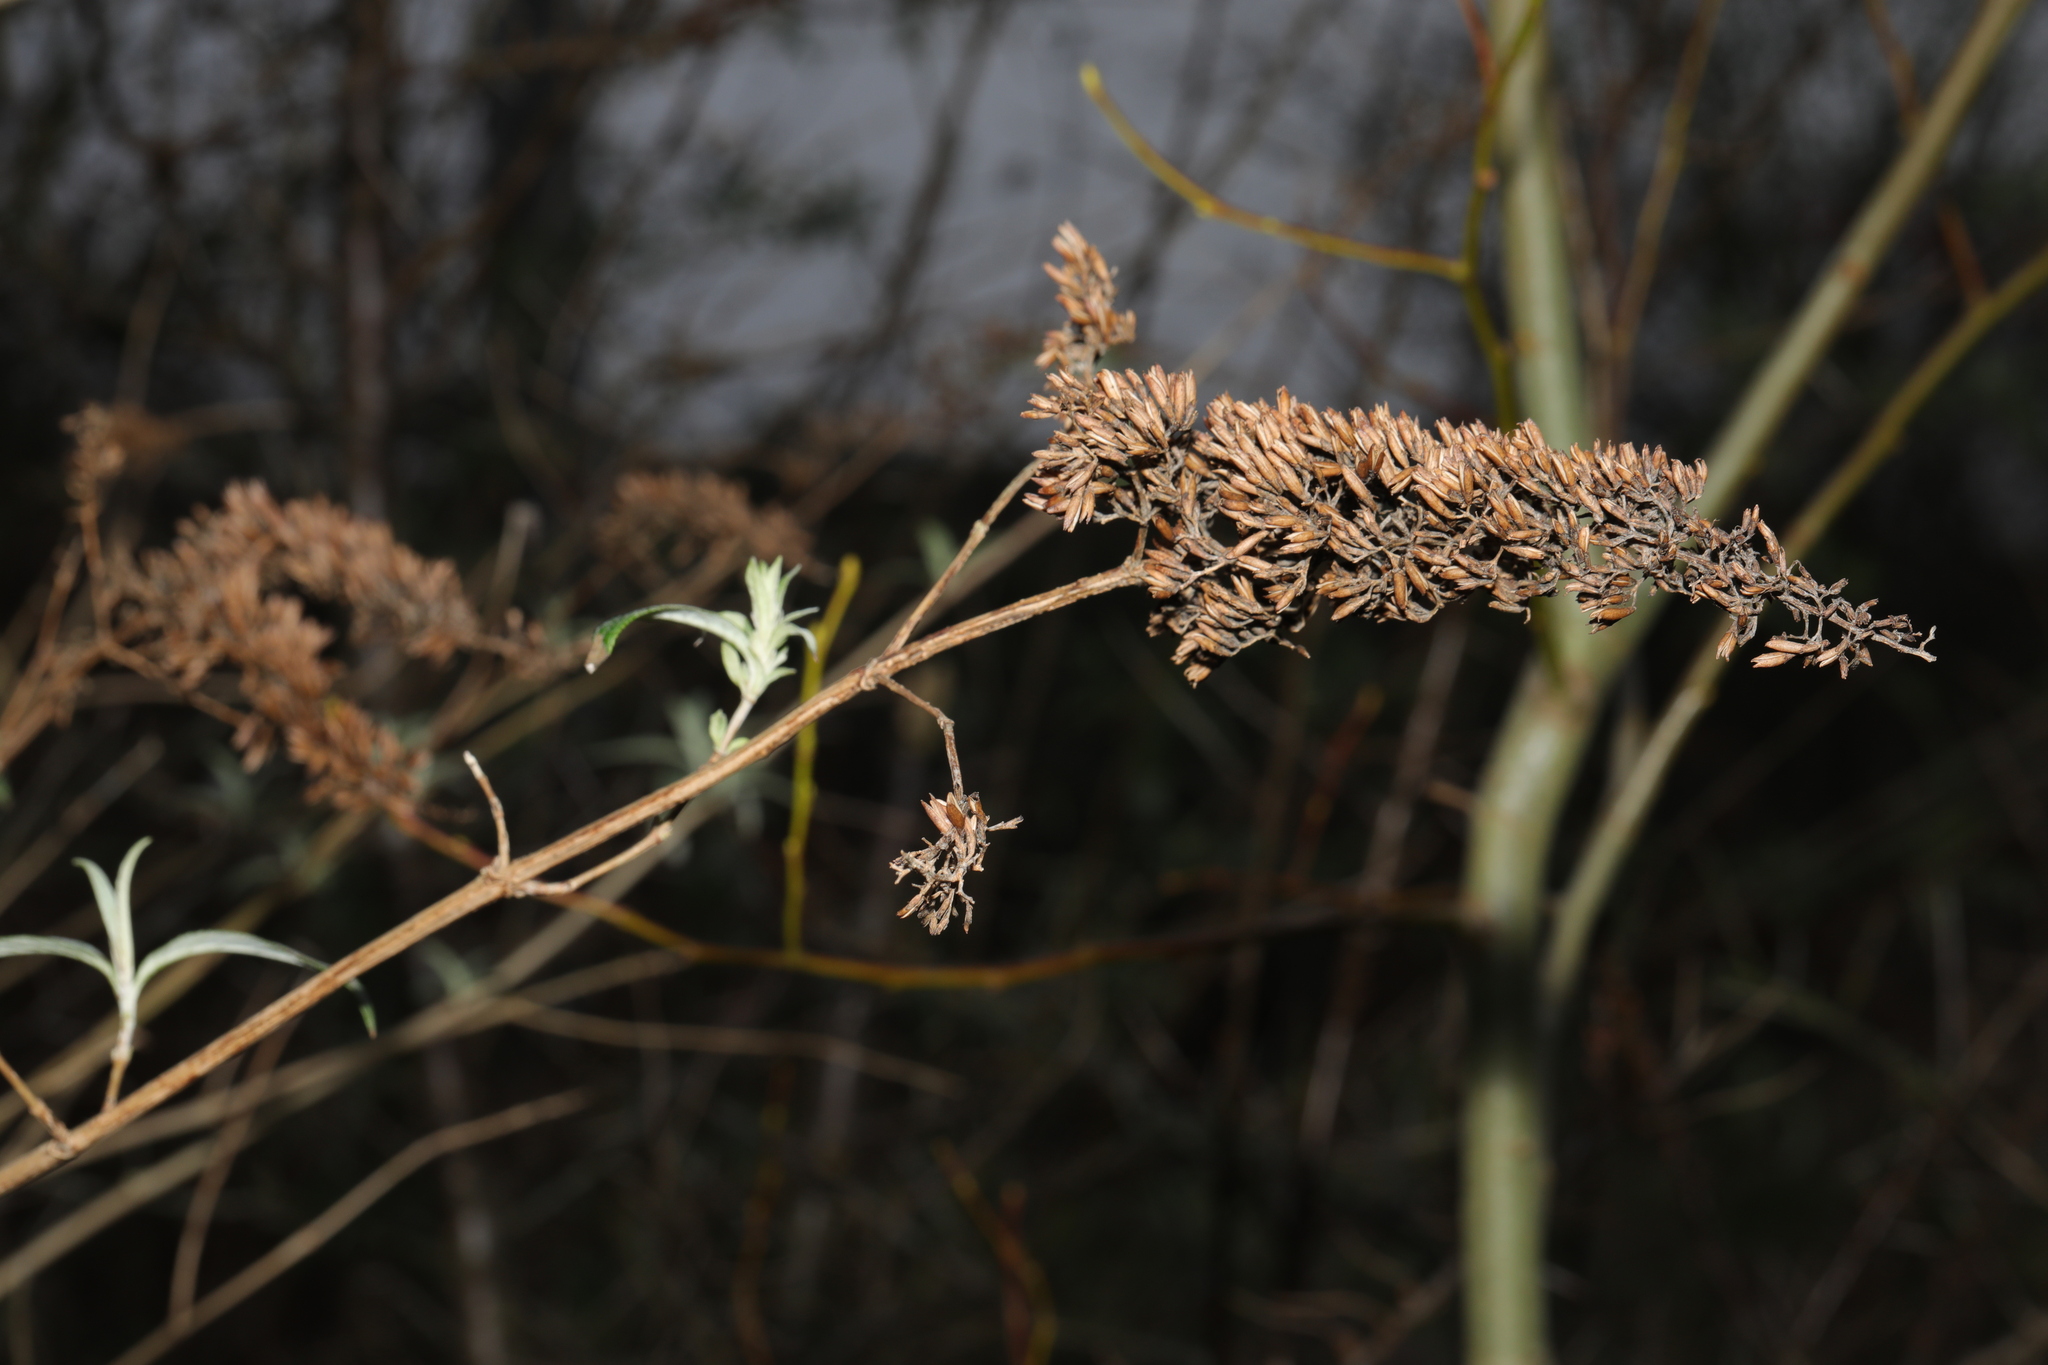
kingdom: Plantae
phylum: Tracheophyta
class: Magnoliopsida
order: Lamiales
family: Scrophulariaceae
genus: Buddleja
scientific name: Buddleja davidii
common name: Butterfly-bush
